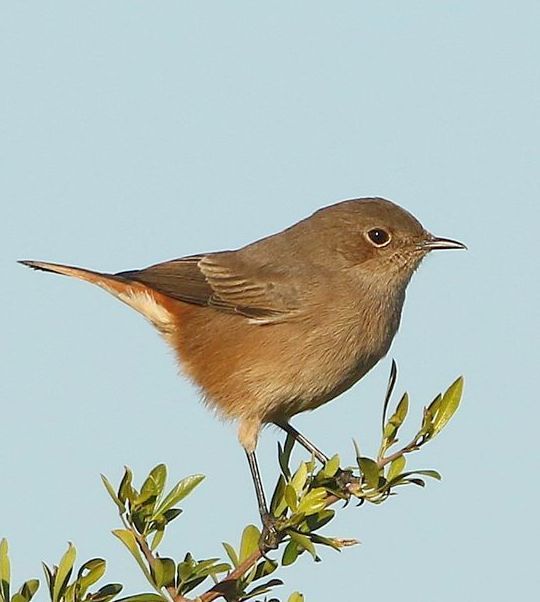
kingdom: Animalia
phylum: Chordata
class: Aves
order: Passeriformes
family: Muscicapidae
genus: Oenanthe
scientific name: Oenanthe familiaris
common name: Familiar chat
